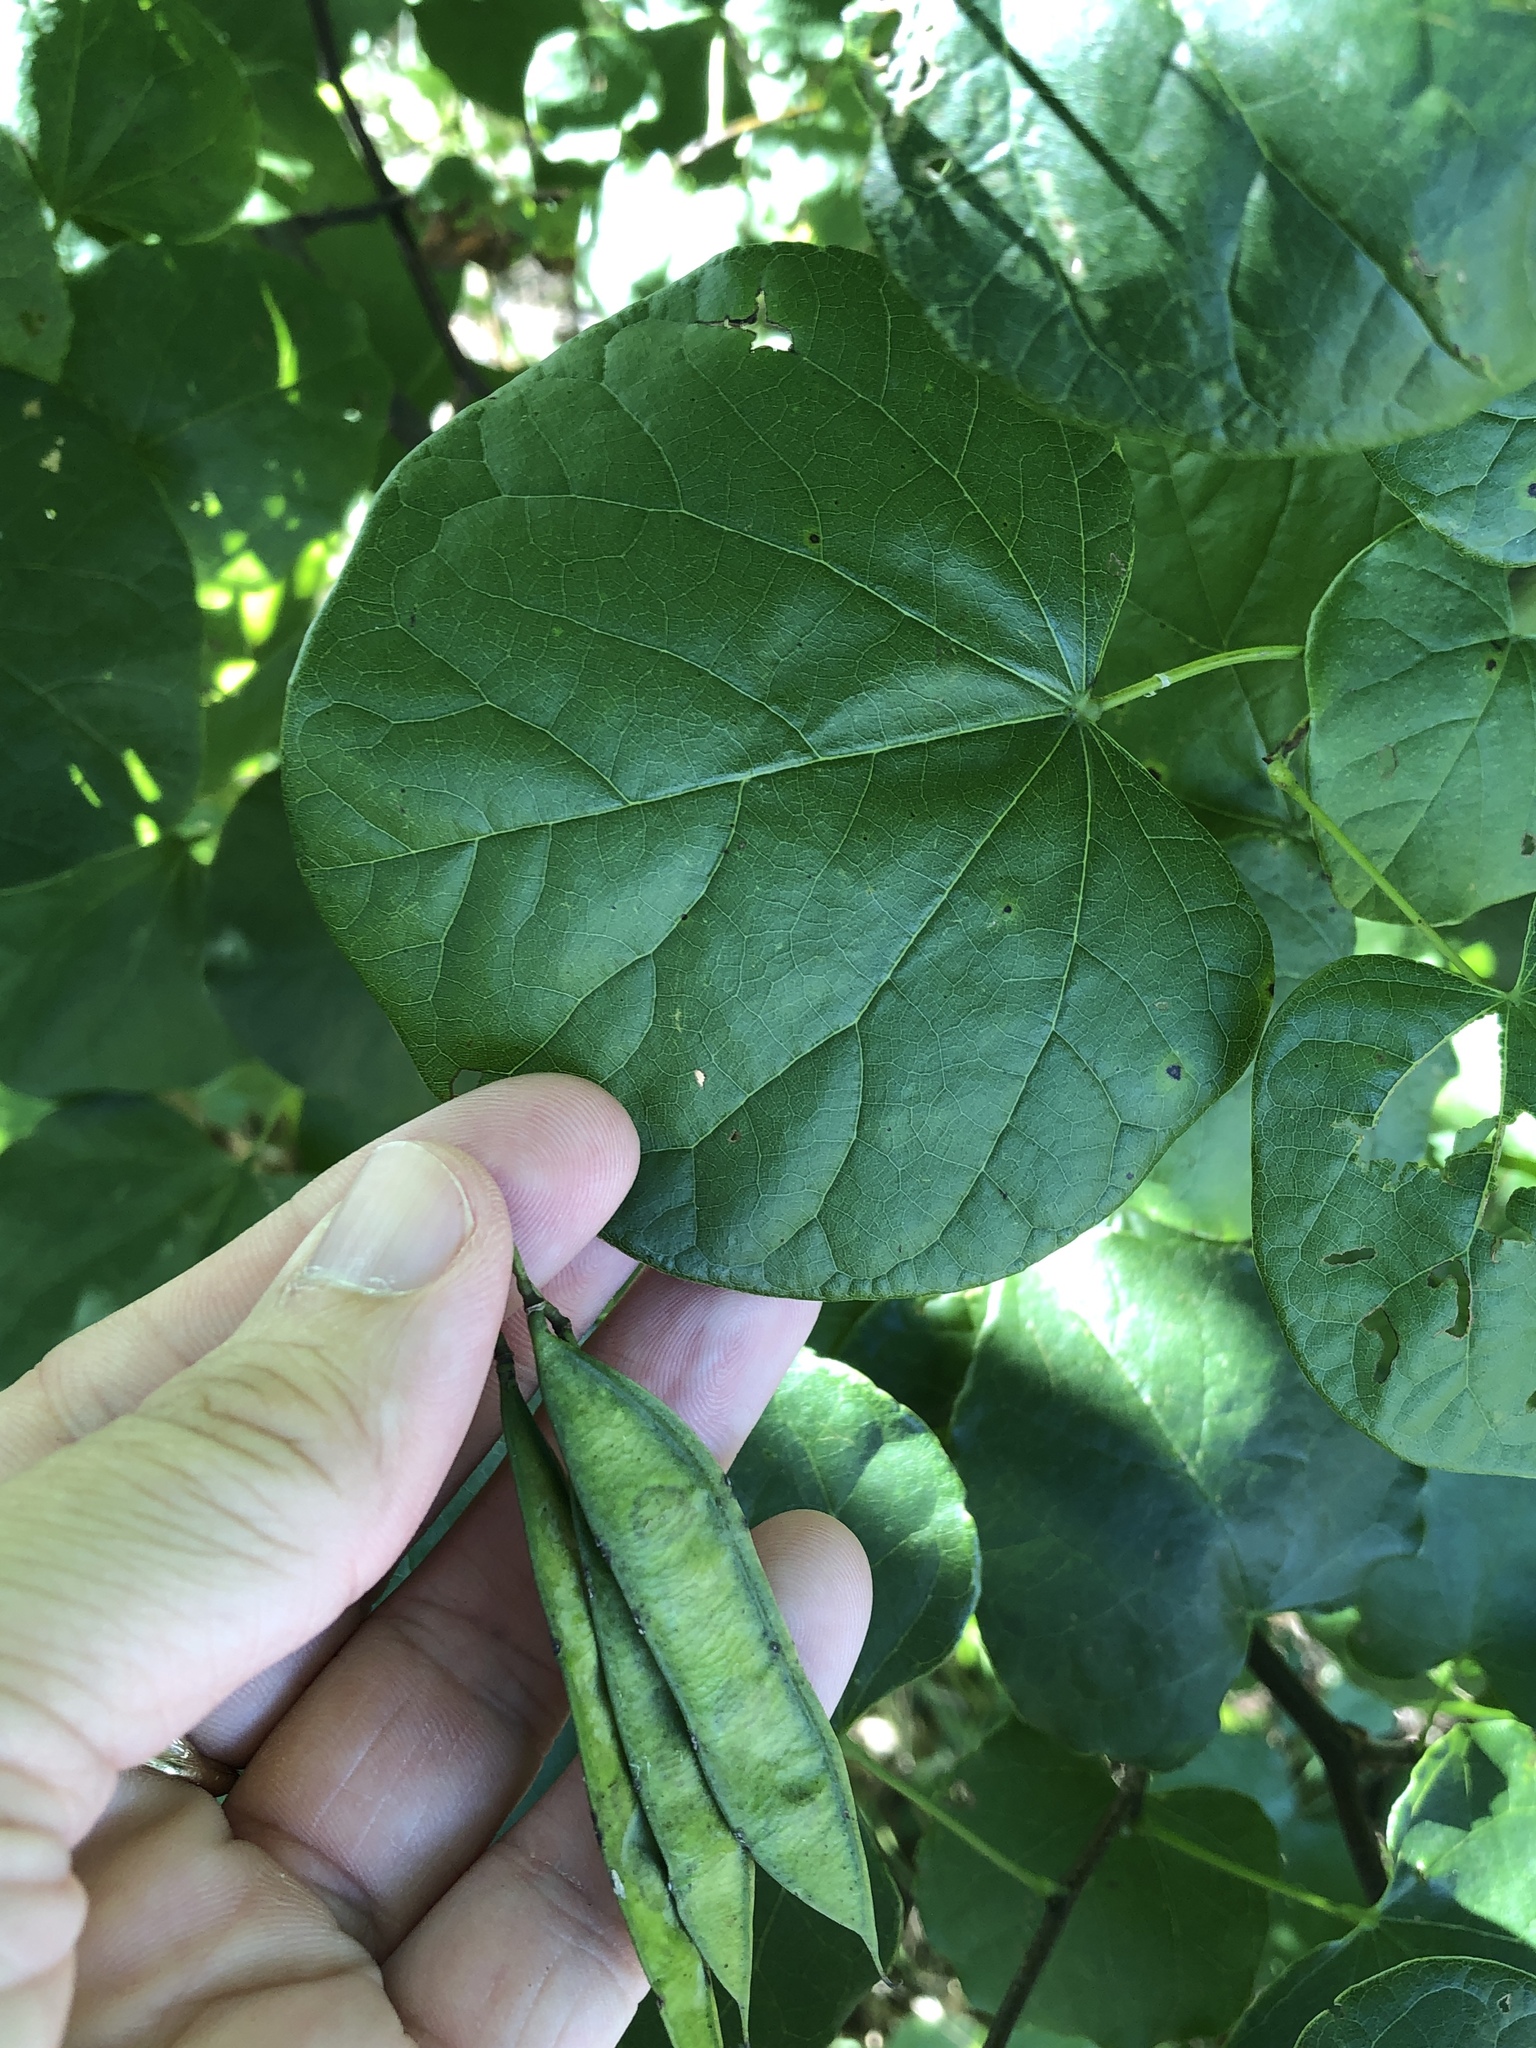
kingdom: Plantae
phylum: Tracheophyta
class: Magnoliopsida
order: Fabales
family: Fabaceae
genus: Cercis
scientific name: Cercis canadensis
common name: Eastern redbud
